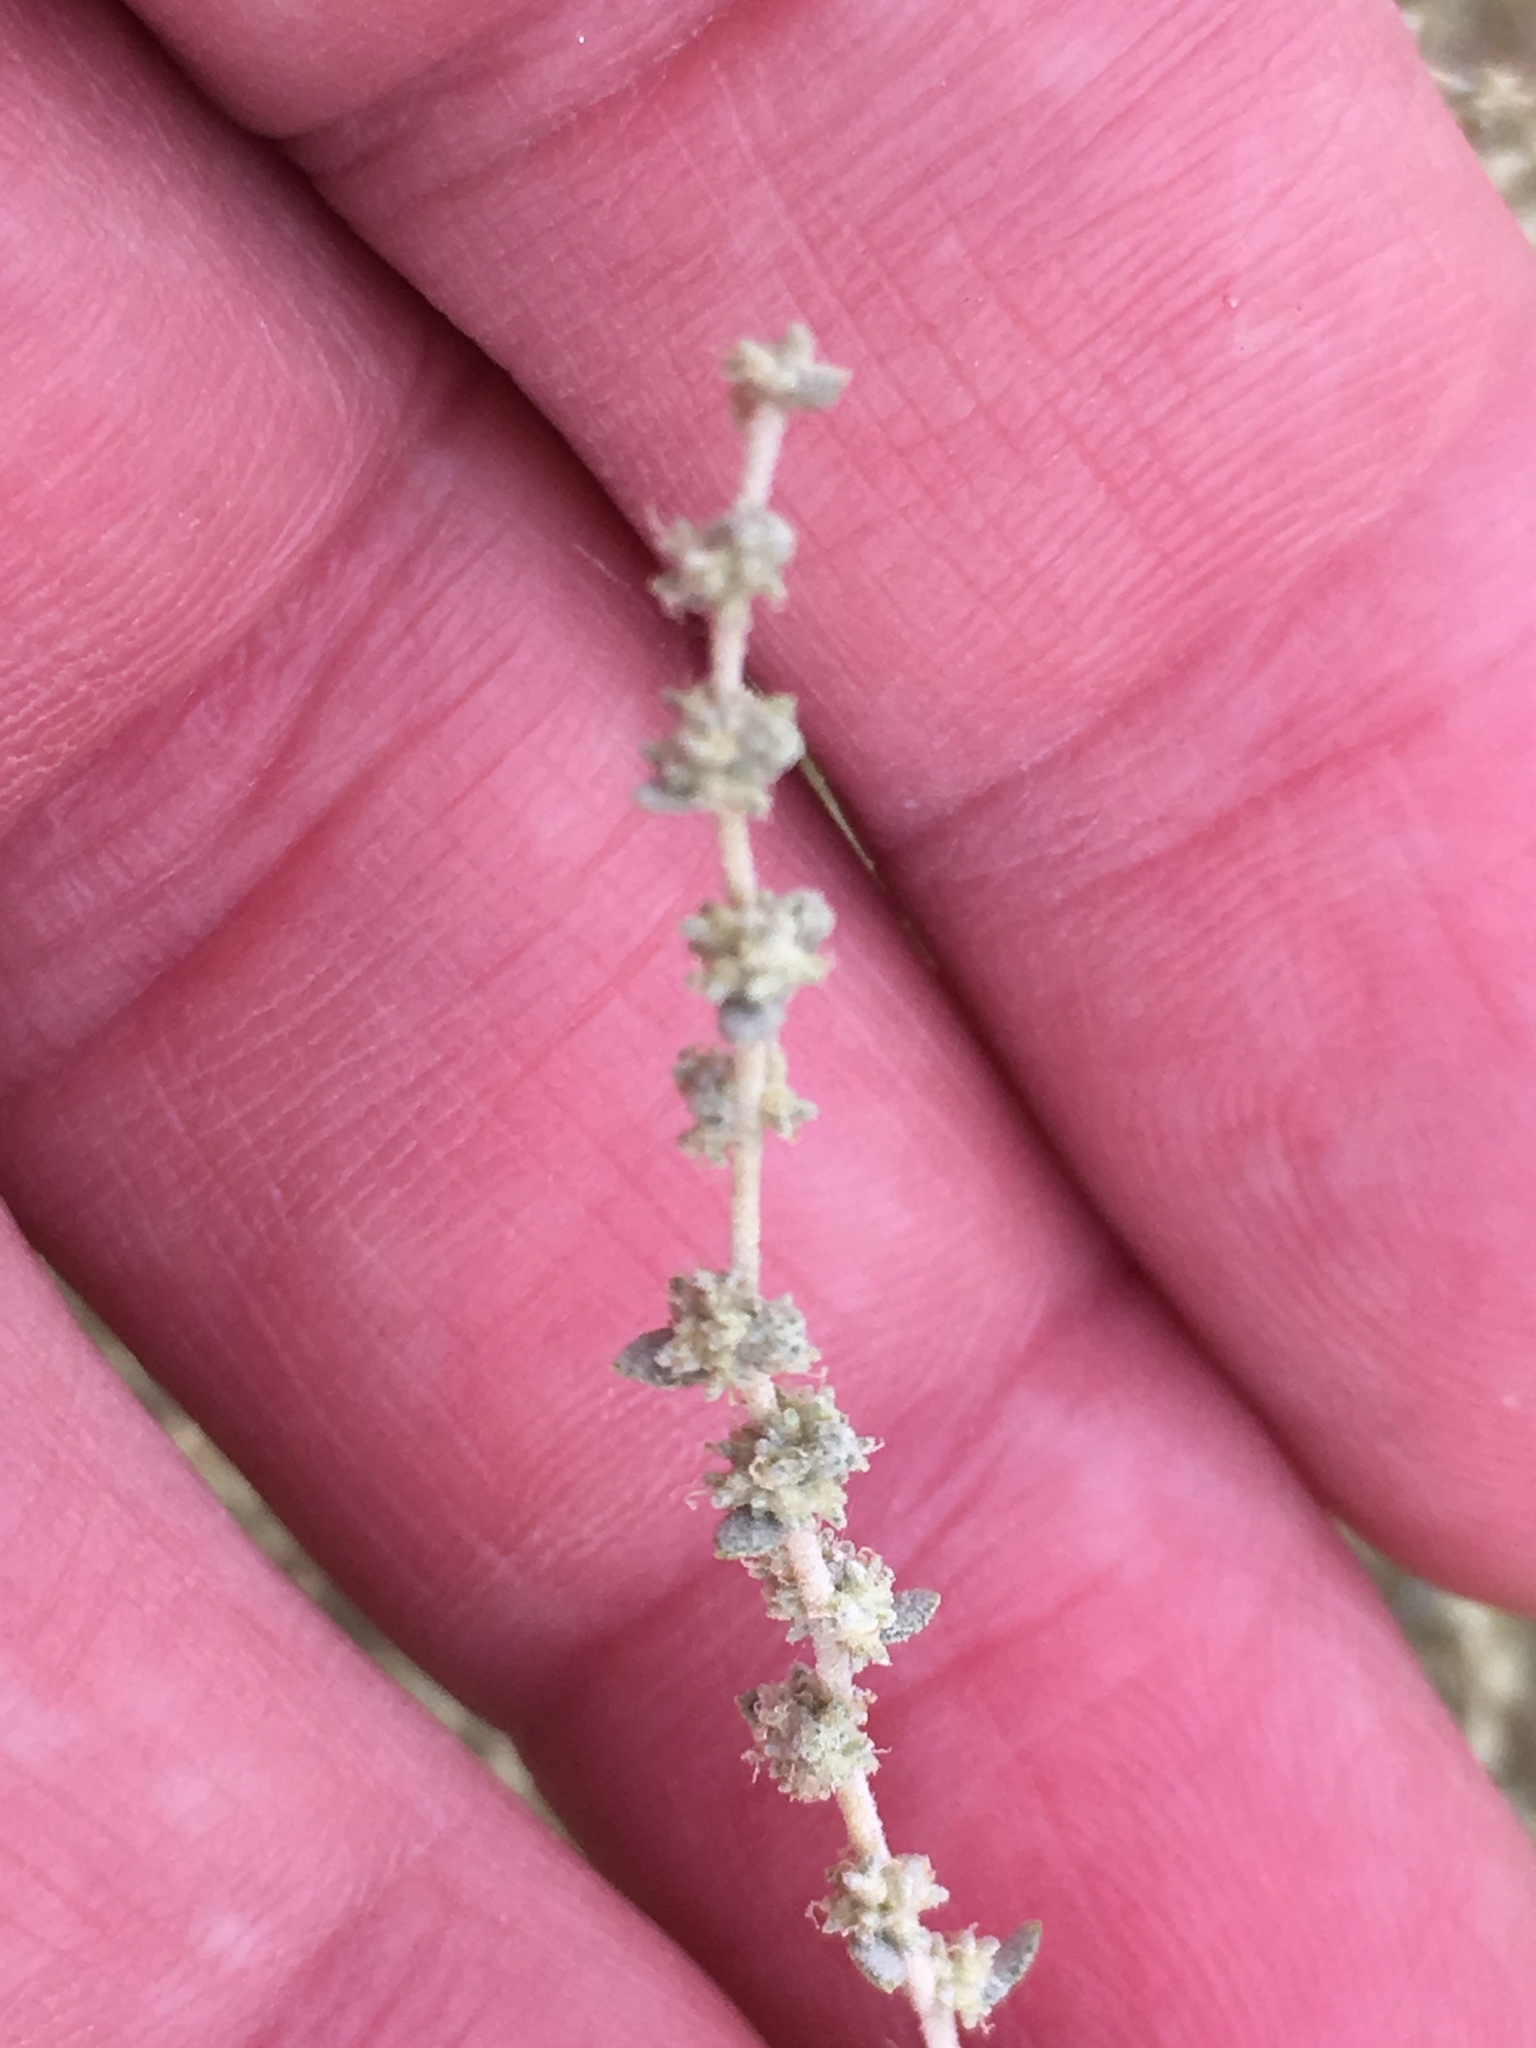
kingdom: Plantae
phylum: Tracheophyta
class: Magnoliopsida
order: Caryophyllales
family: Amaranthaceae
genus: Atriplex
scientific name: Atriplex polycarpa
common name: Desert saltbush
